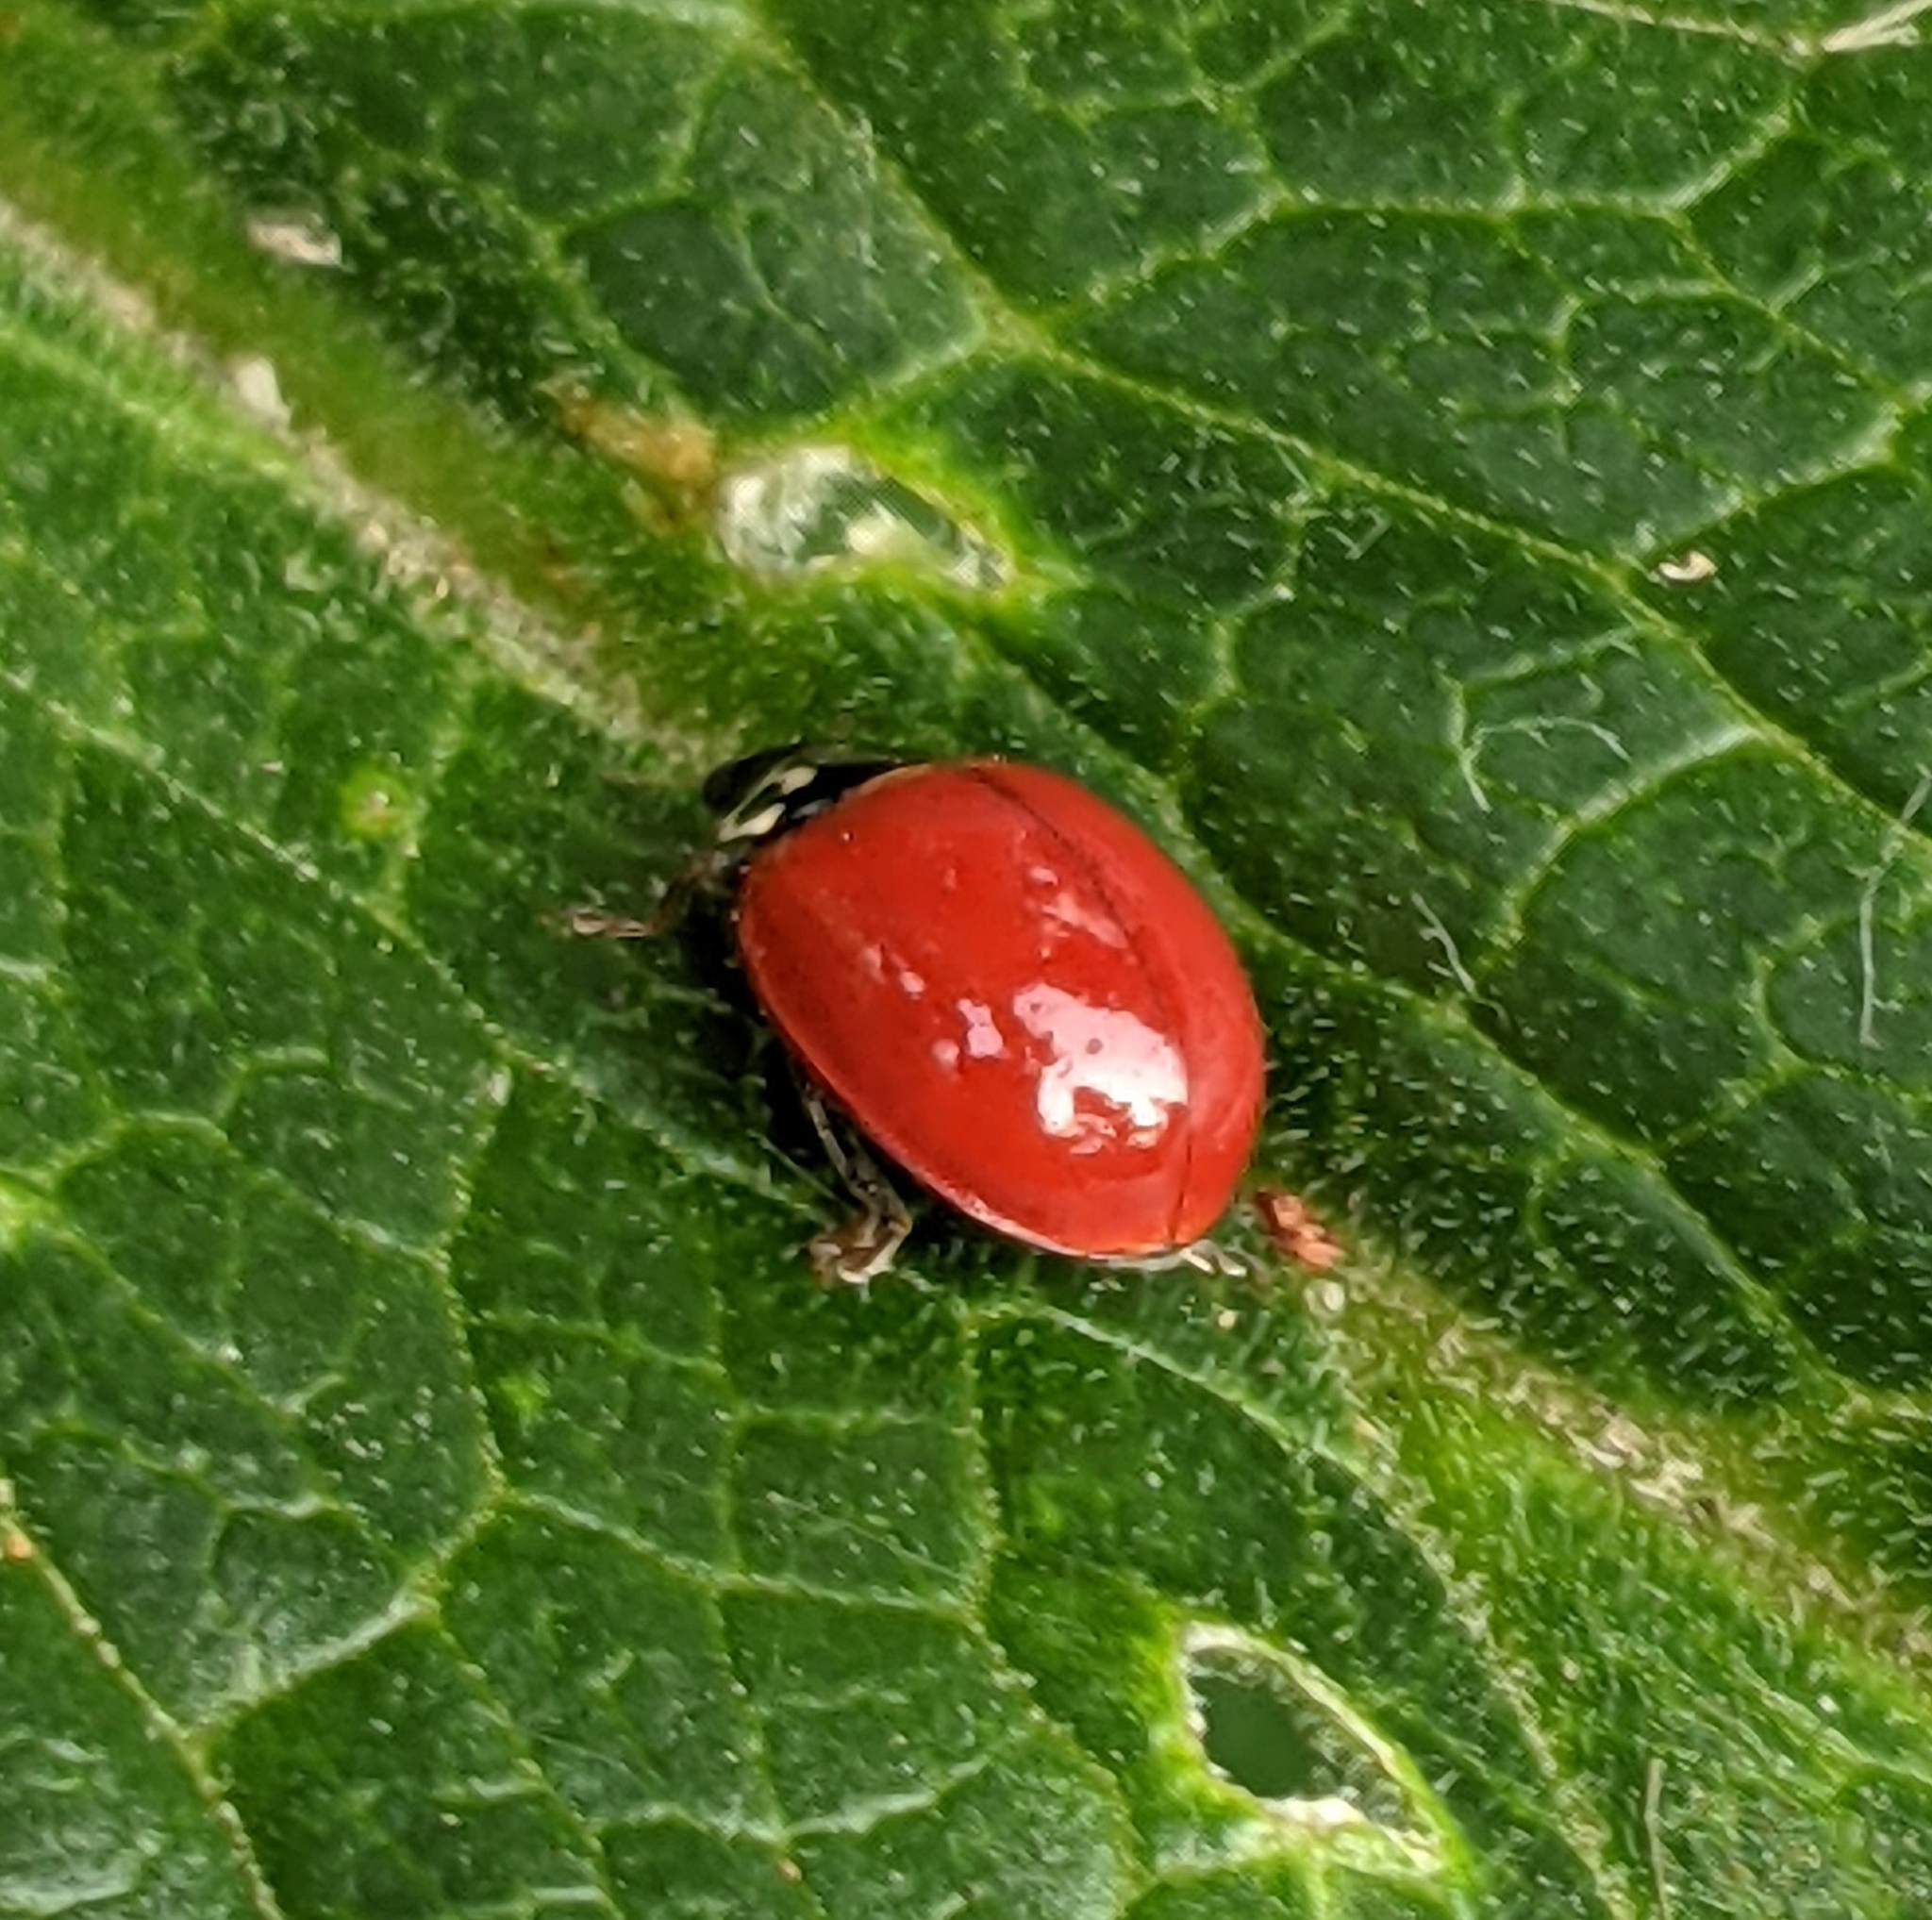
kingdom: Animalia
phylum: Arthropoda
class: Insecta
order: Coleoptera
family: Coccinellidae
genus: Cycloneda
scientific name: Cycloneda polita
